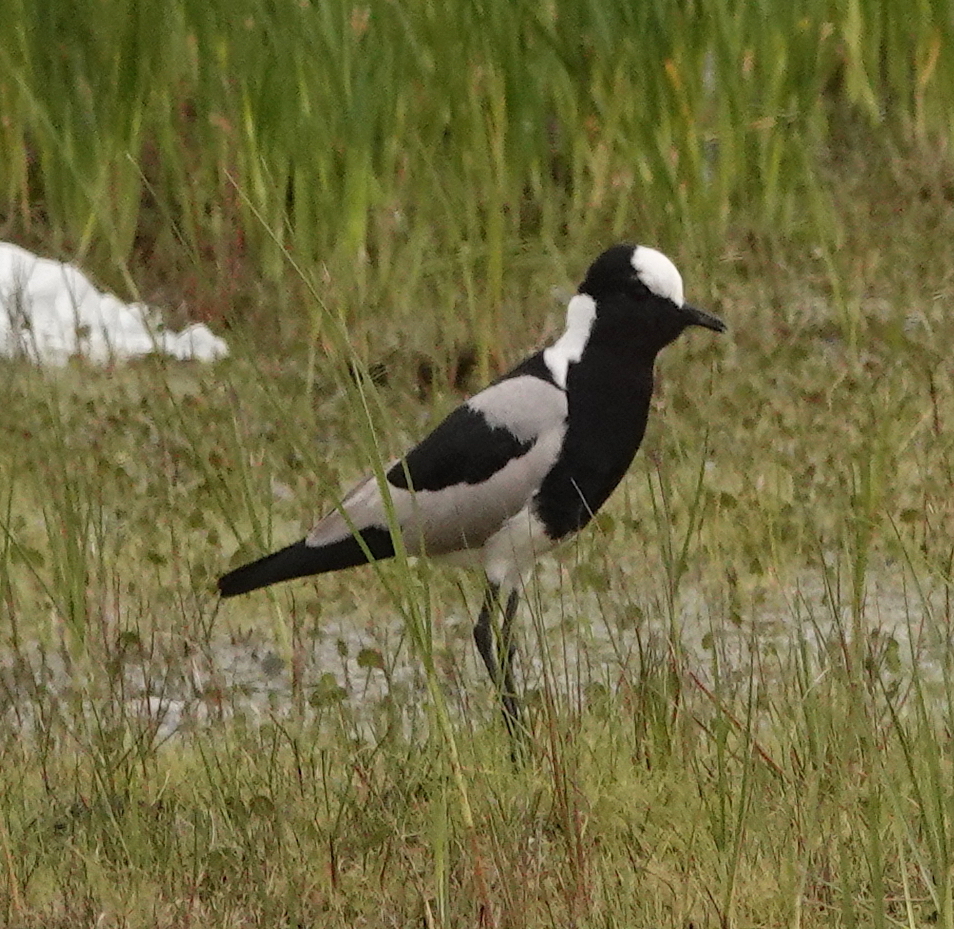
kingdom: Animalia
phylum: Chordata
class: Aves
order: Charadriiformes
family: Charadriidae
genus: Vanellus
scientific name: Vanellus armatus
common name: Blacksmith lapwing
